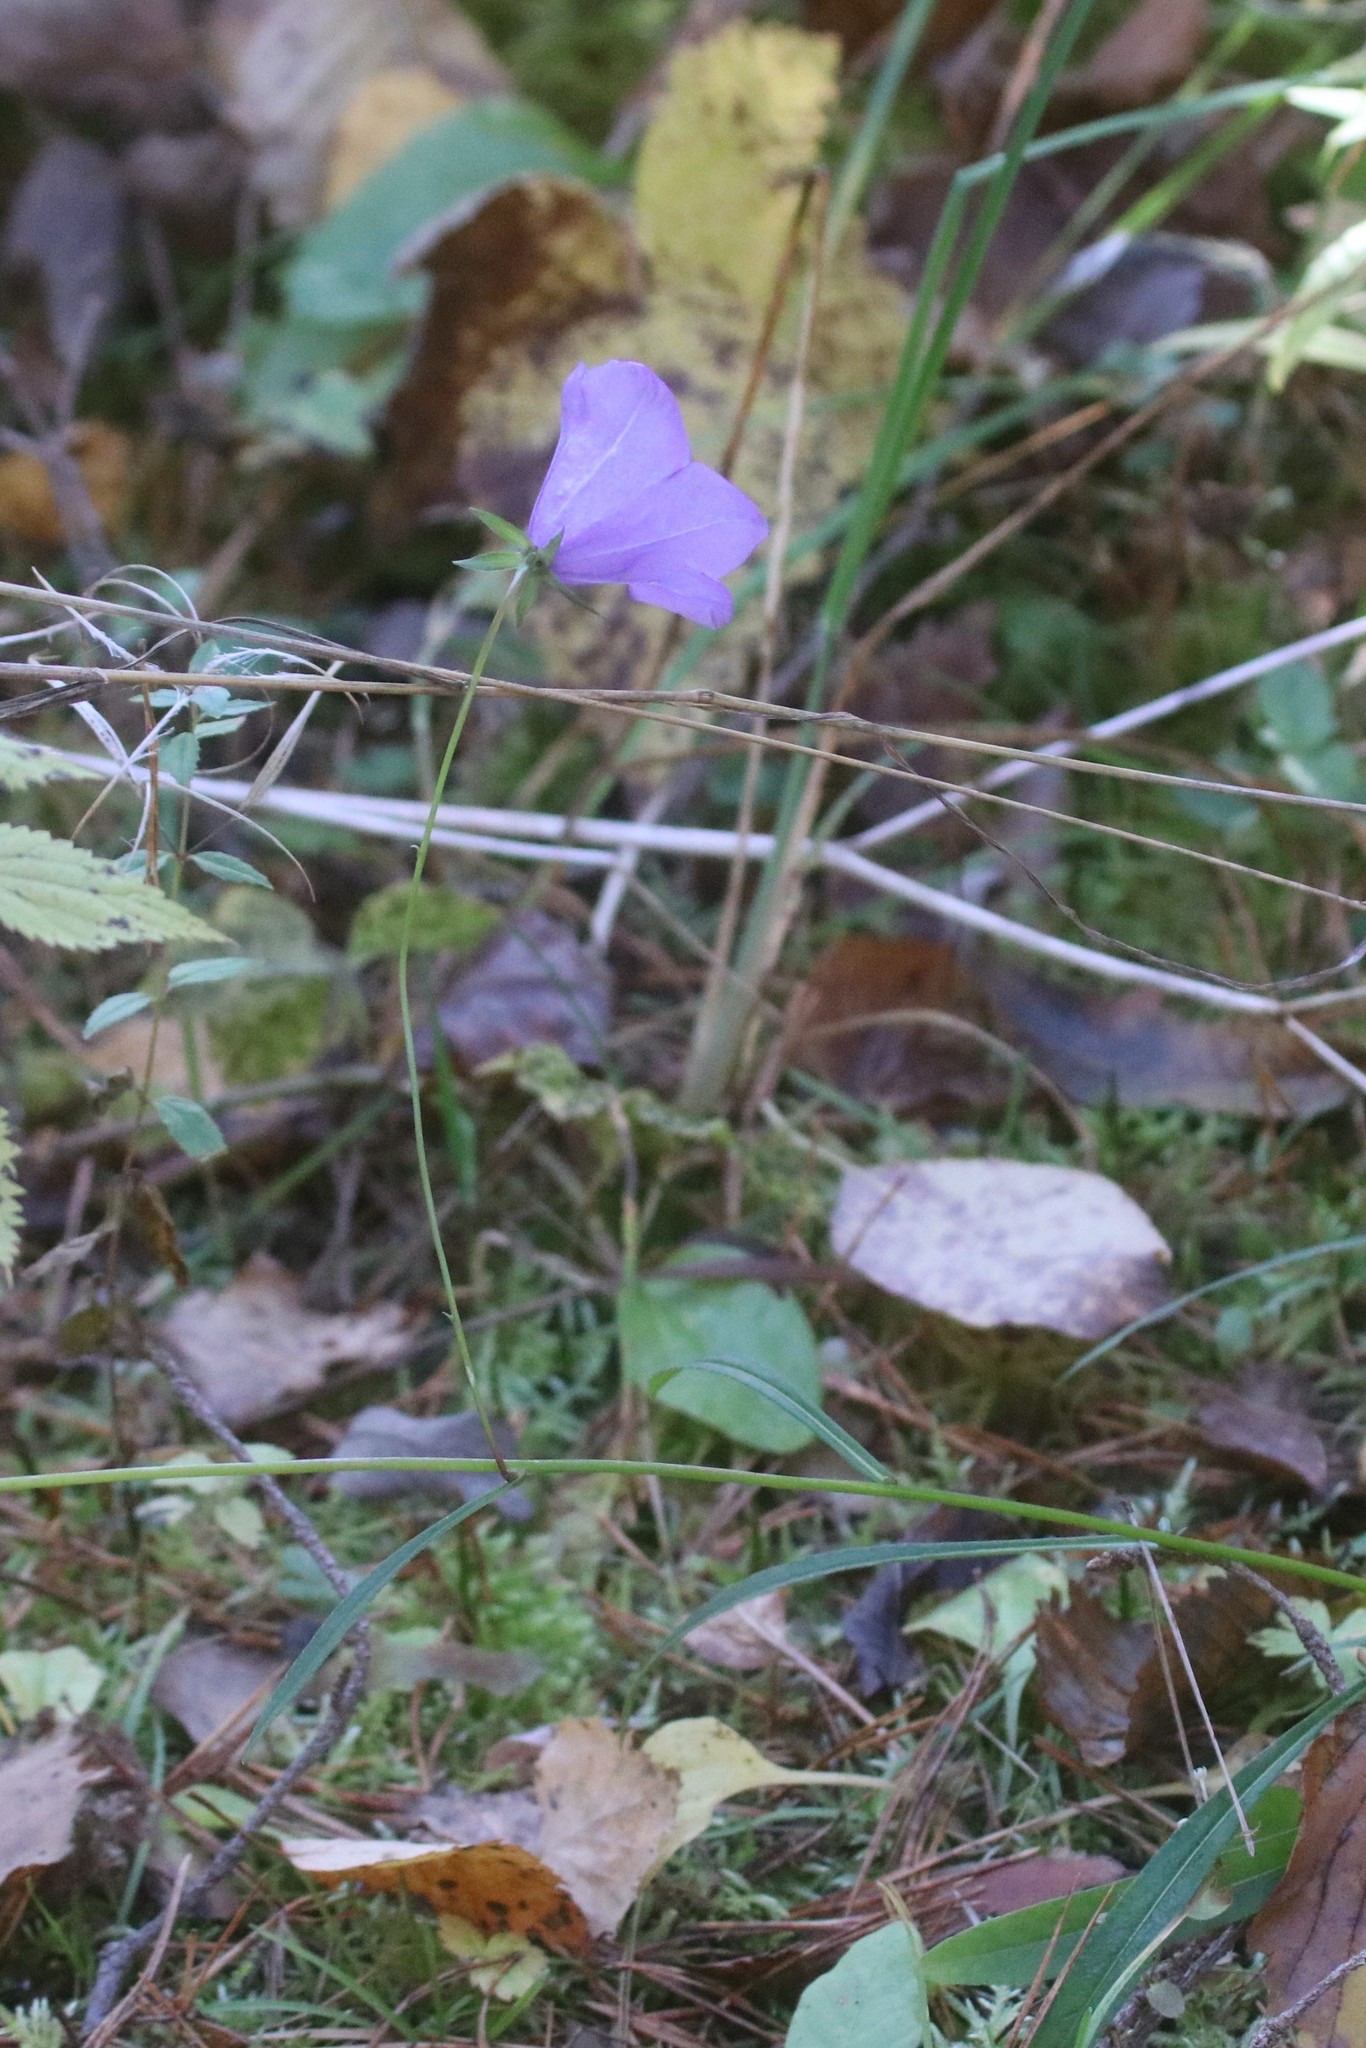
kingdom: Plantae
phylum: Tracheophyta
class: Magnoliopsida
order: Asterales
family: Campanulaceae
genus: Campanula
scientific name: Campanula persicifolia
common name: Peach-leaved bellflower
